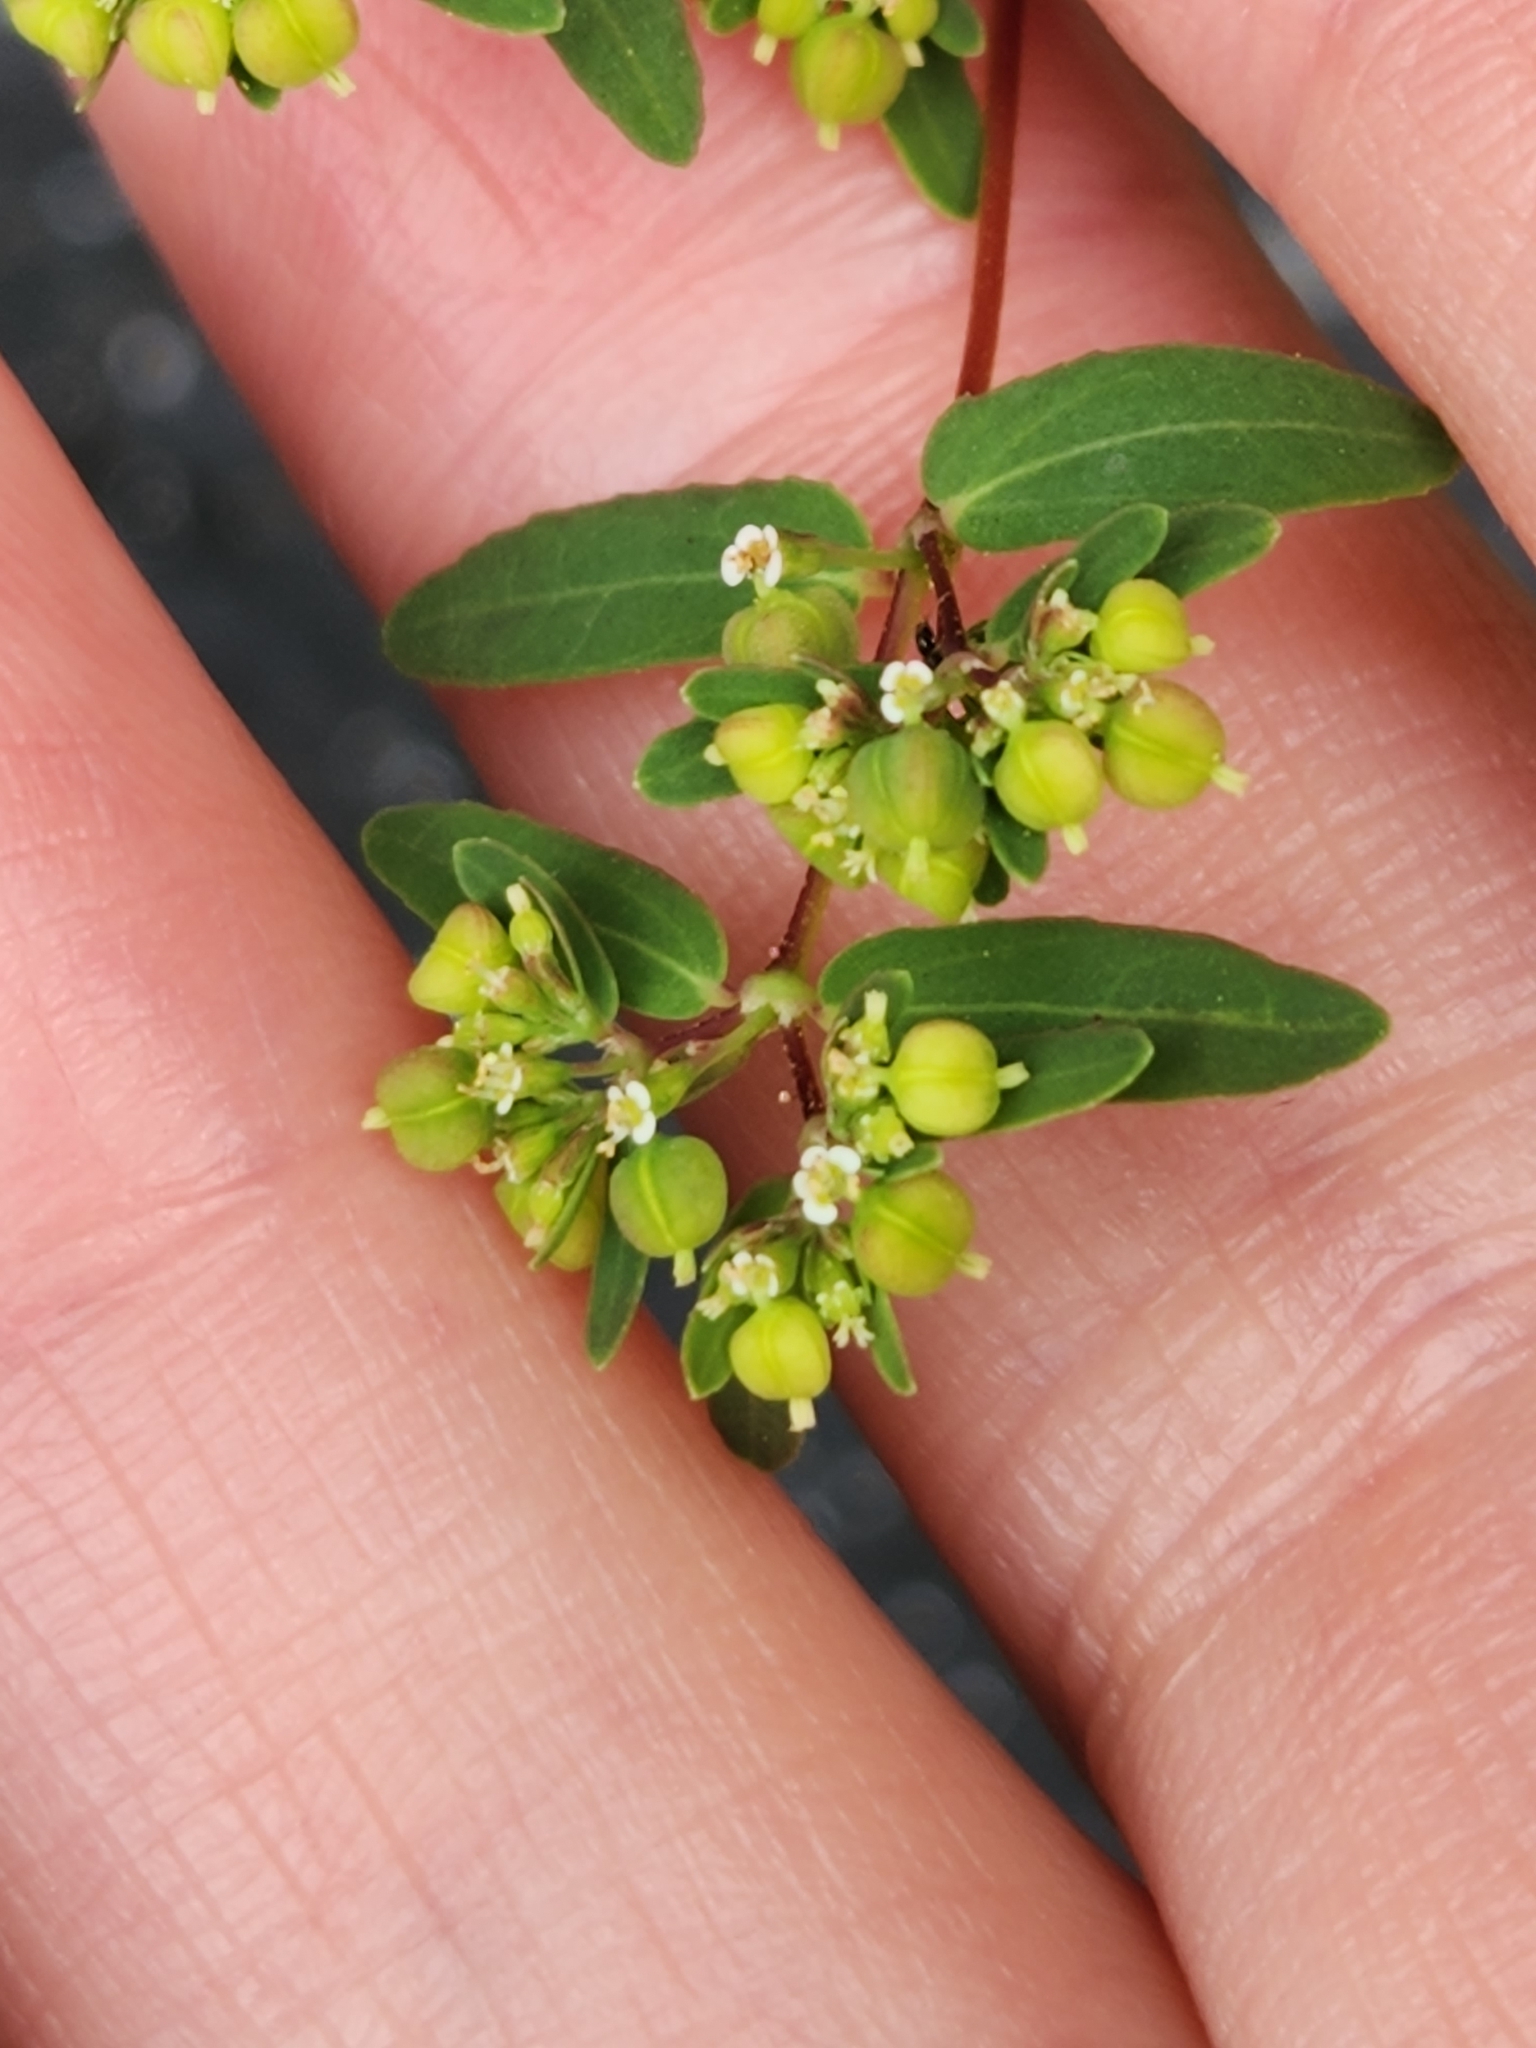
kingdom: Plantae
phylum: Tracheophyta
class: Magnoliopsida
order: Malpighiales
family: Euphorbiaceae
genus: Euphorbia
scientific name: Euphorbia hyssopifolia
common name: Hyssopleaf sandmat
